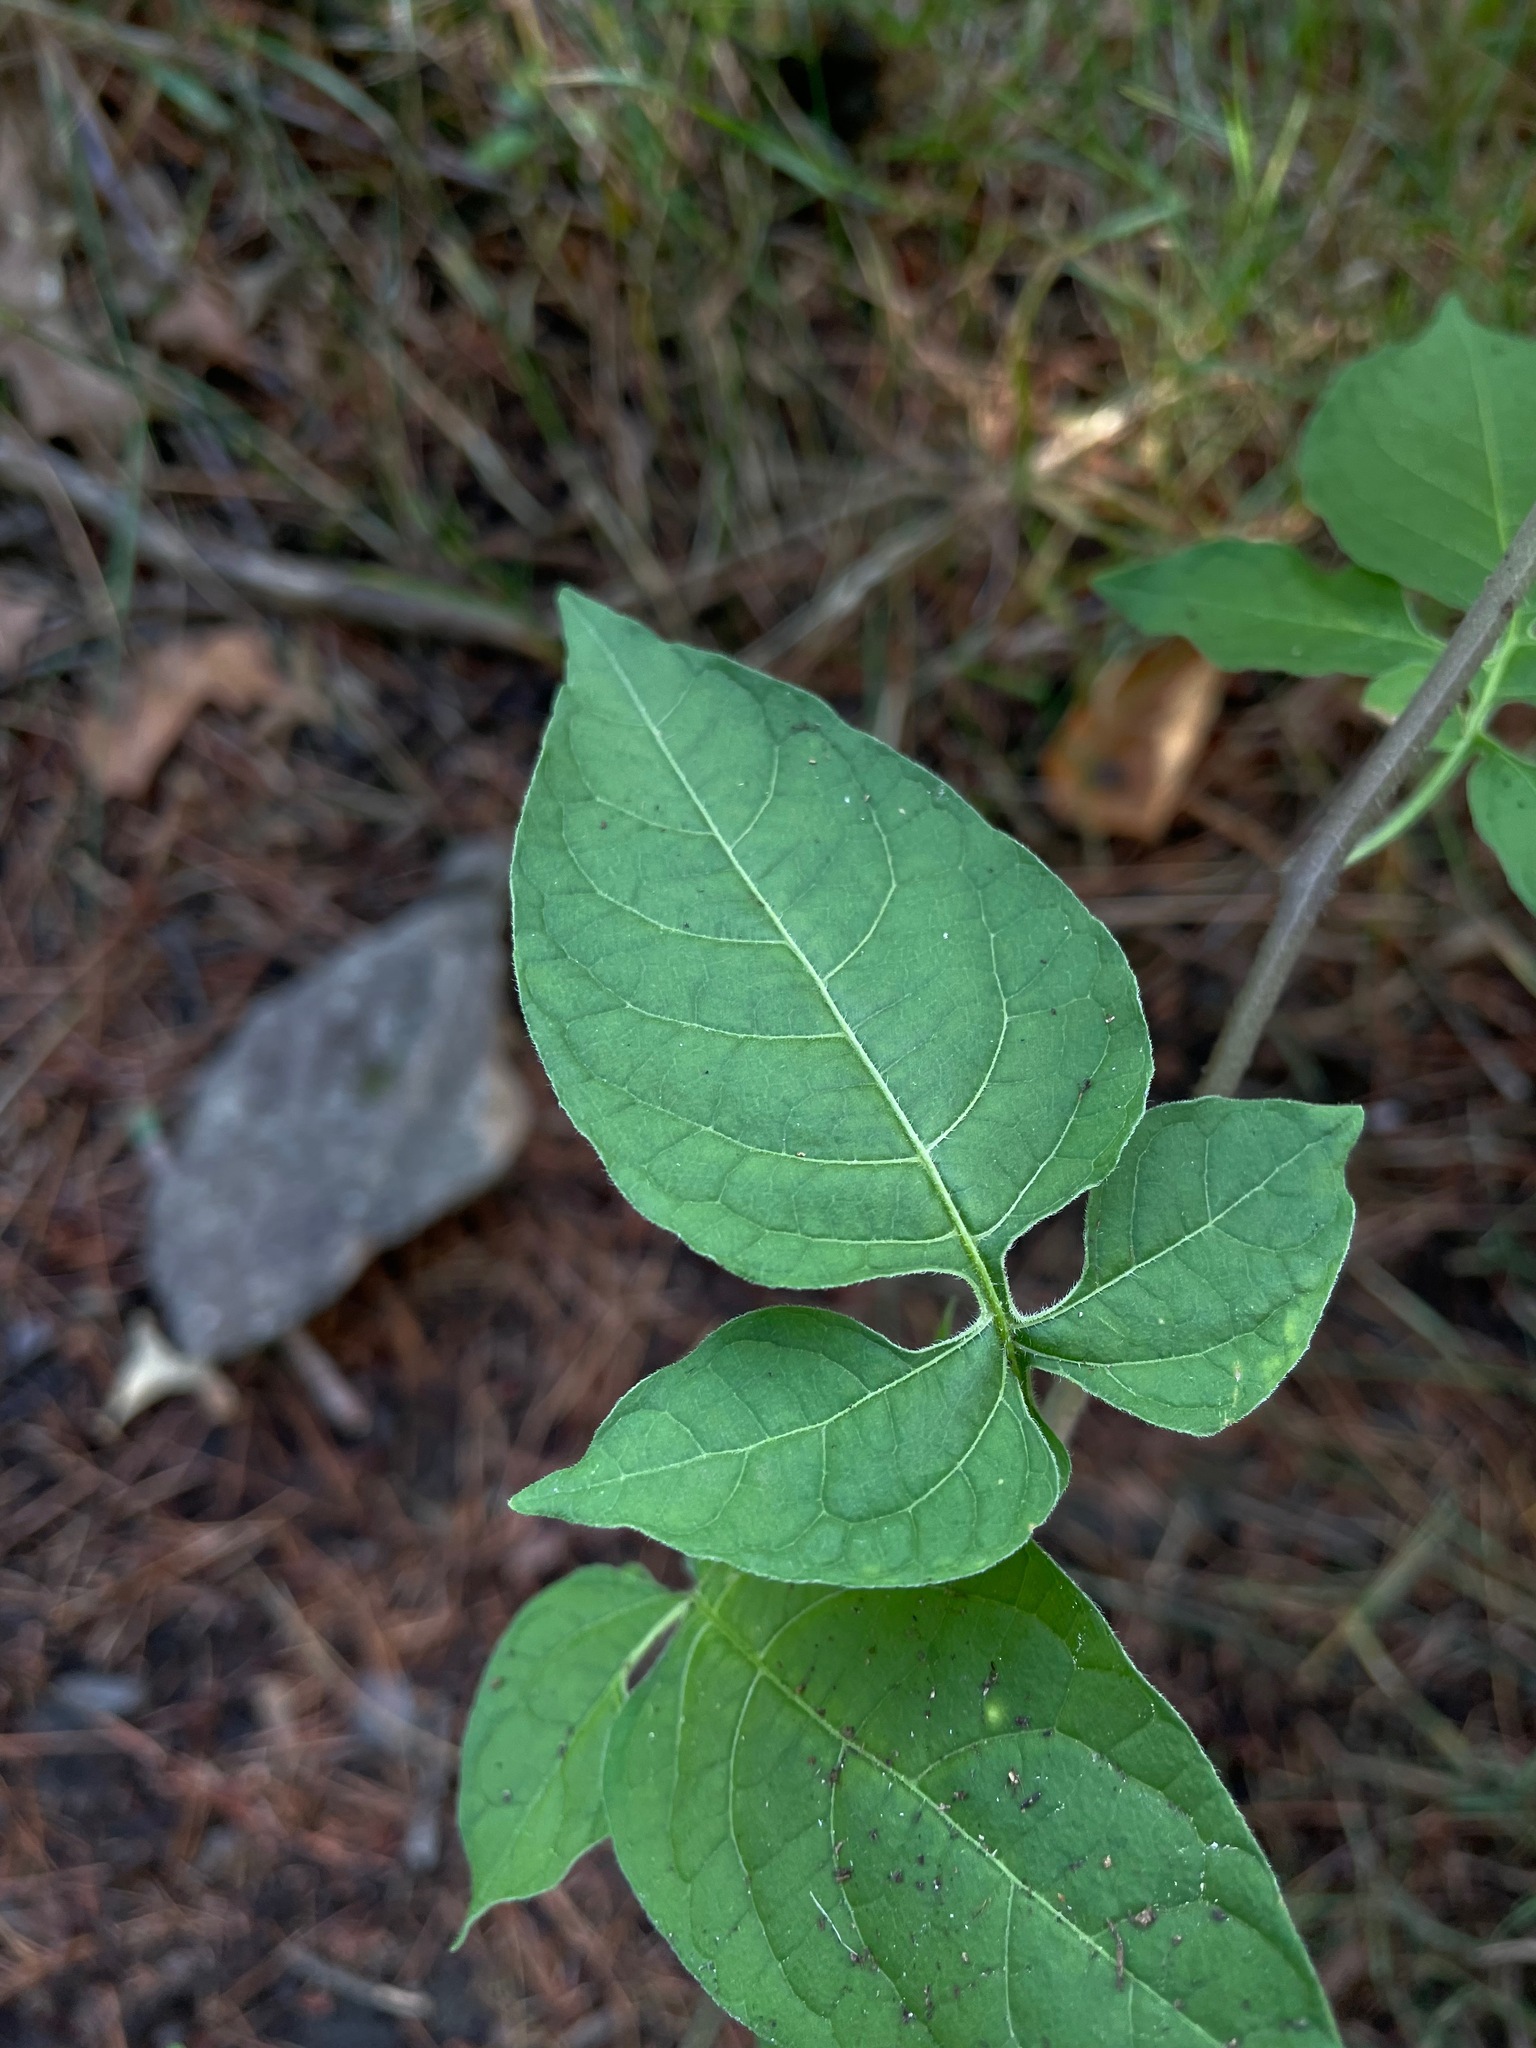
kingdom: Plantae
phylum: Tracheophyta
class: Magnoliopsida
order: Solanales
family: Solanaceae
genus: Solanum
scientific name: Solanum dulcamara
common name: Climbing nightshade
